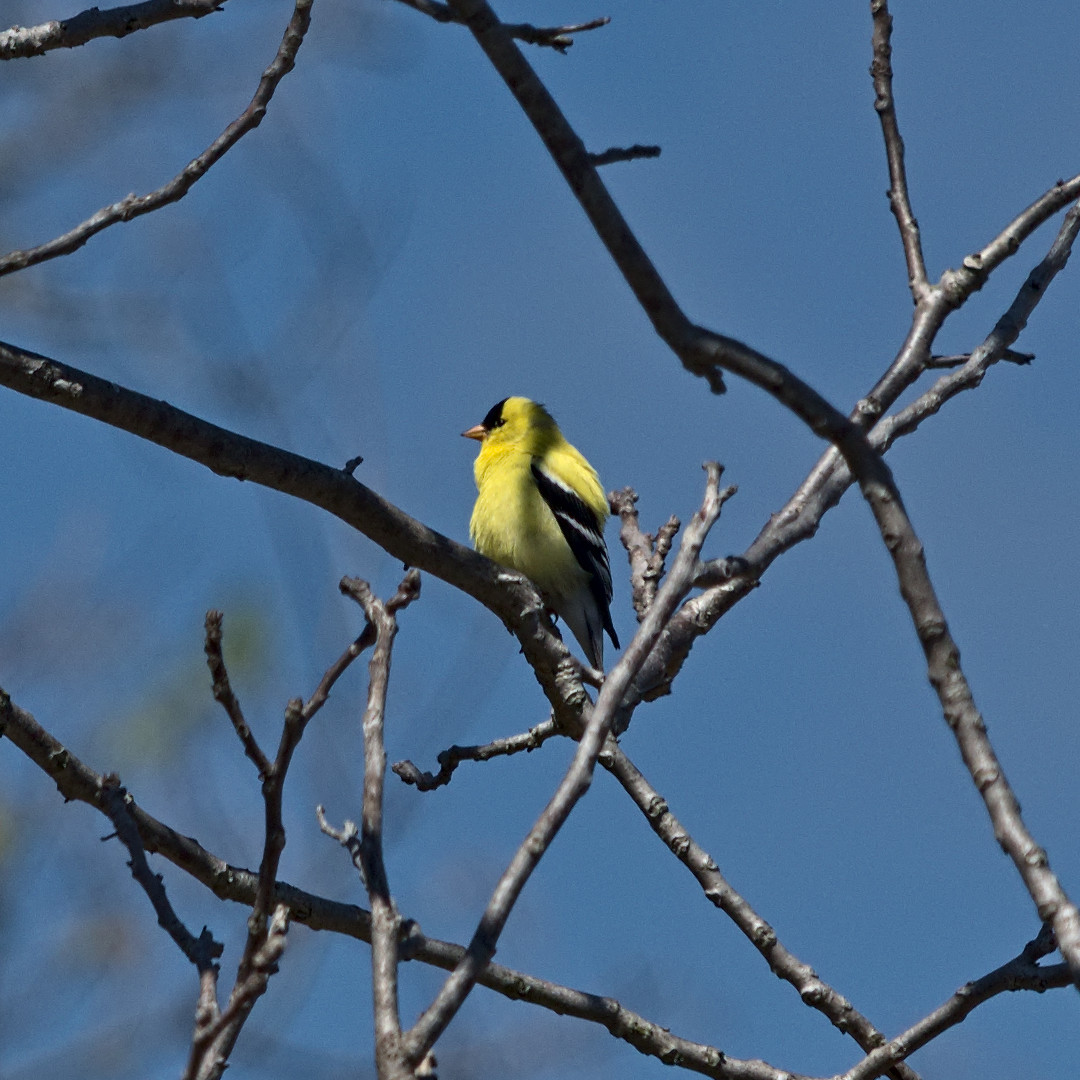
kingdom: Animalia
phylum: Chordata
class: Aves
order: Passeriformes
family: Fringillidae
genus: Spinus
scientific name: Spinus tristis
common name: American goldfinch
